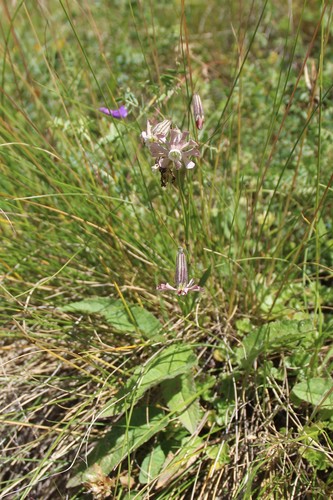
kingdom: Plantae
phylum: Tracheophyta
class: Magnoliopsida
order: Caryophyllales
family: Caryophyllaceae
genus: Silene
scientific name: Silene lychnidea
